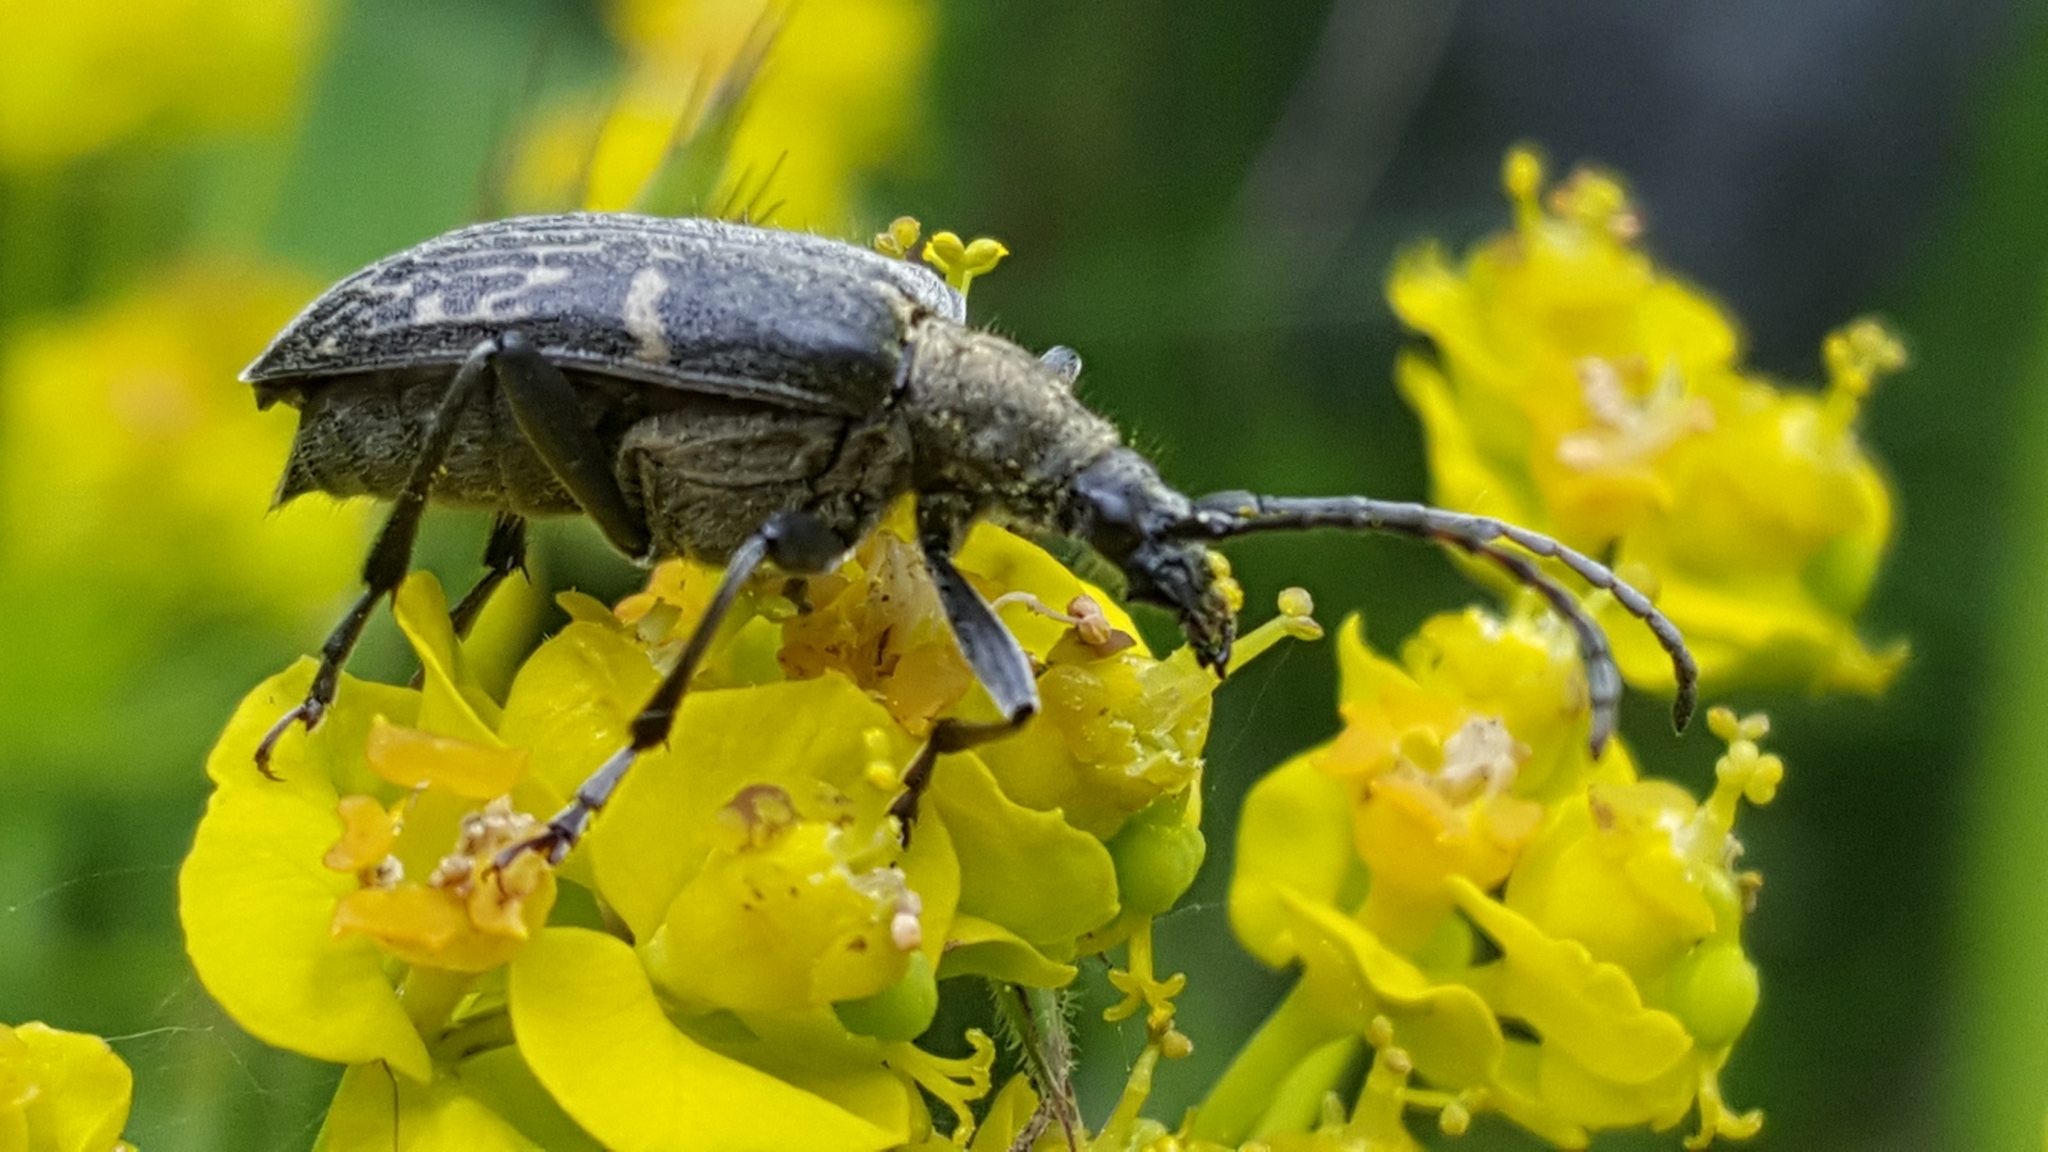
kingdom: Animalia
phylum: Arthropoda
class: Insecta
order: Coleoptera
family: Cerambycidae
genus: Evodinus
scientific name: Evodinus clathratus
